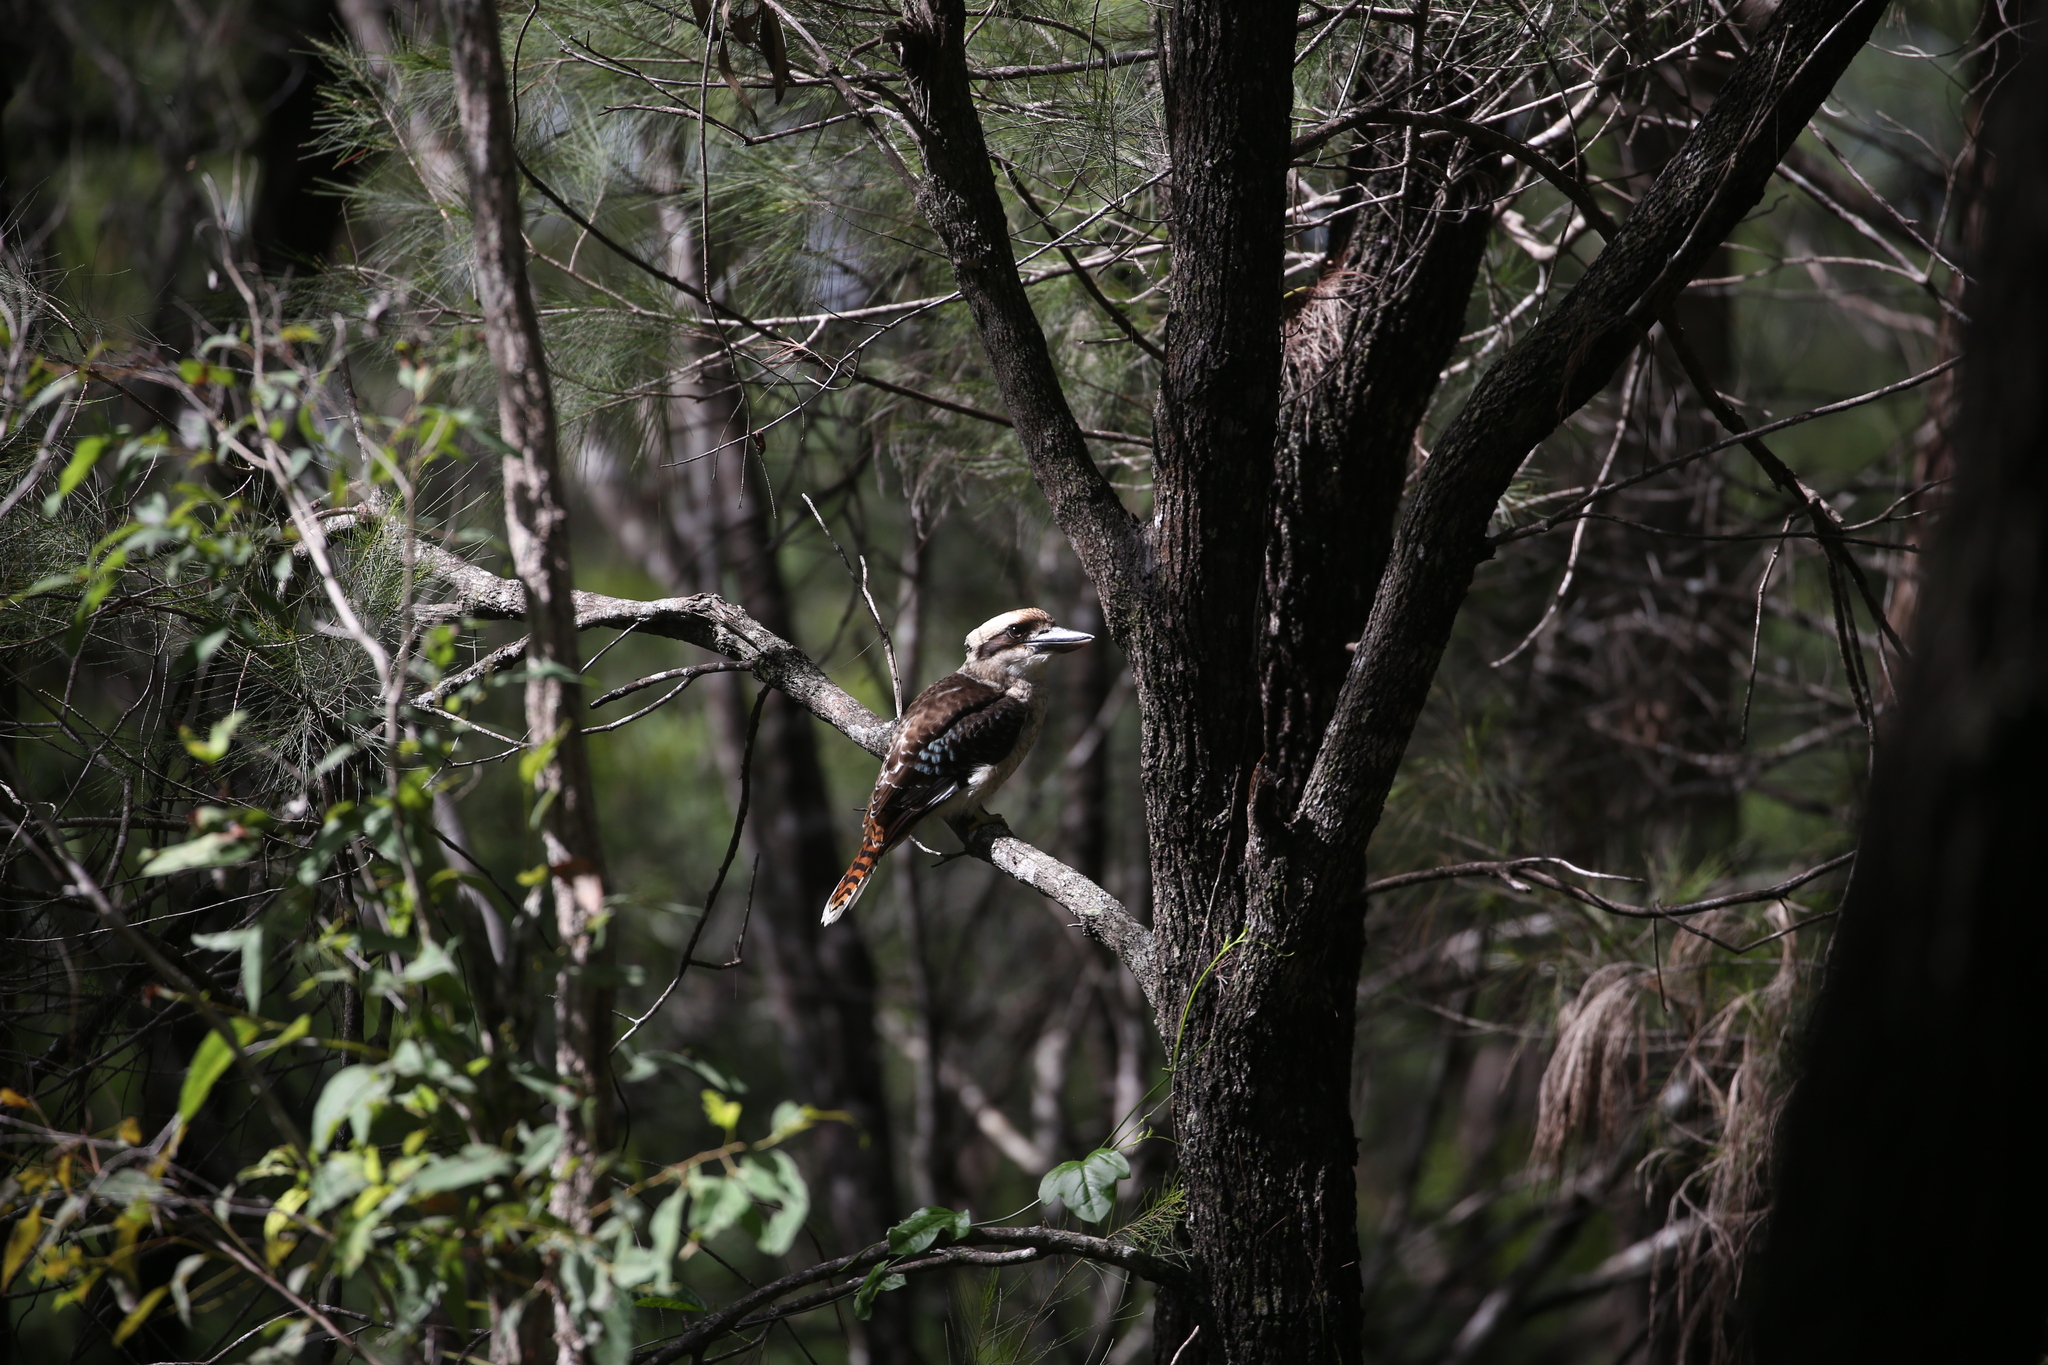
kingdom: Animalia
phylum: Chordata
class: Aves
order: Coraciiformes
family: Alcedinidae
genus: Dacelo
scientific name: Dacelo novaeguineae
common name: Laughing kookaburra
